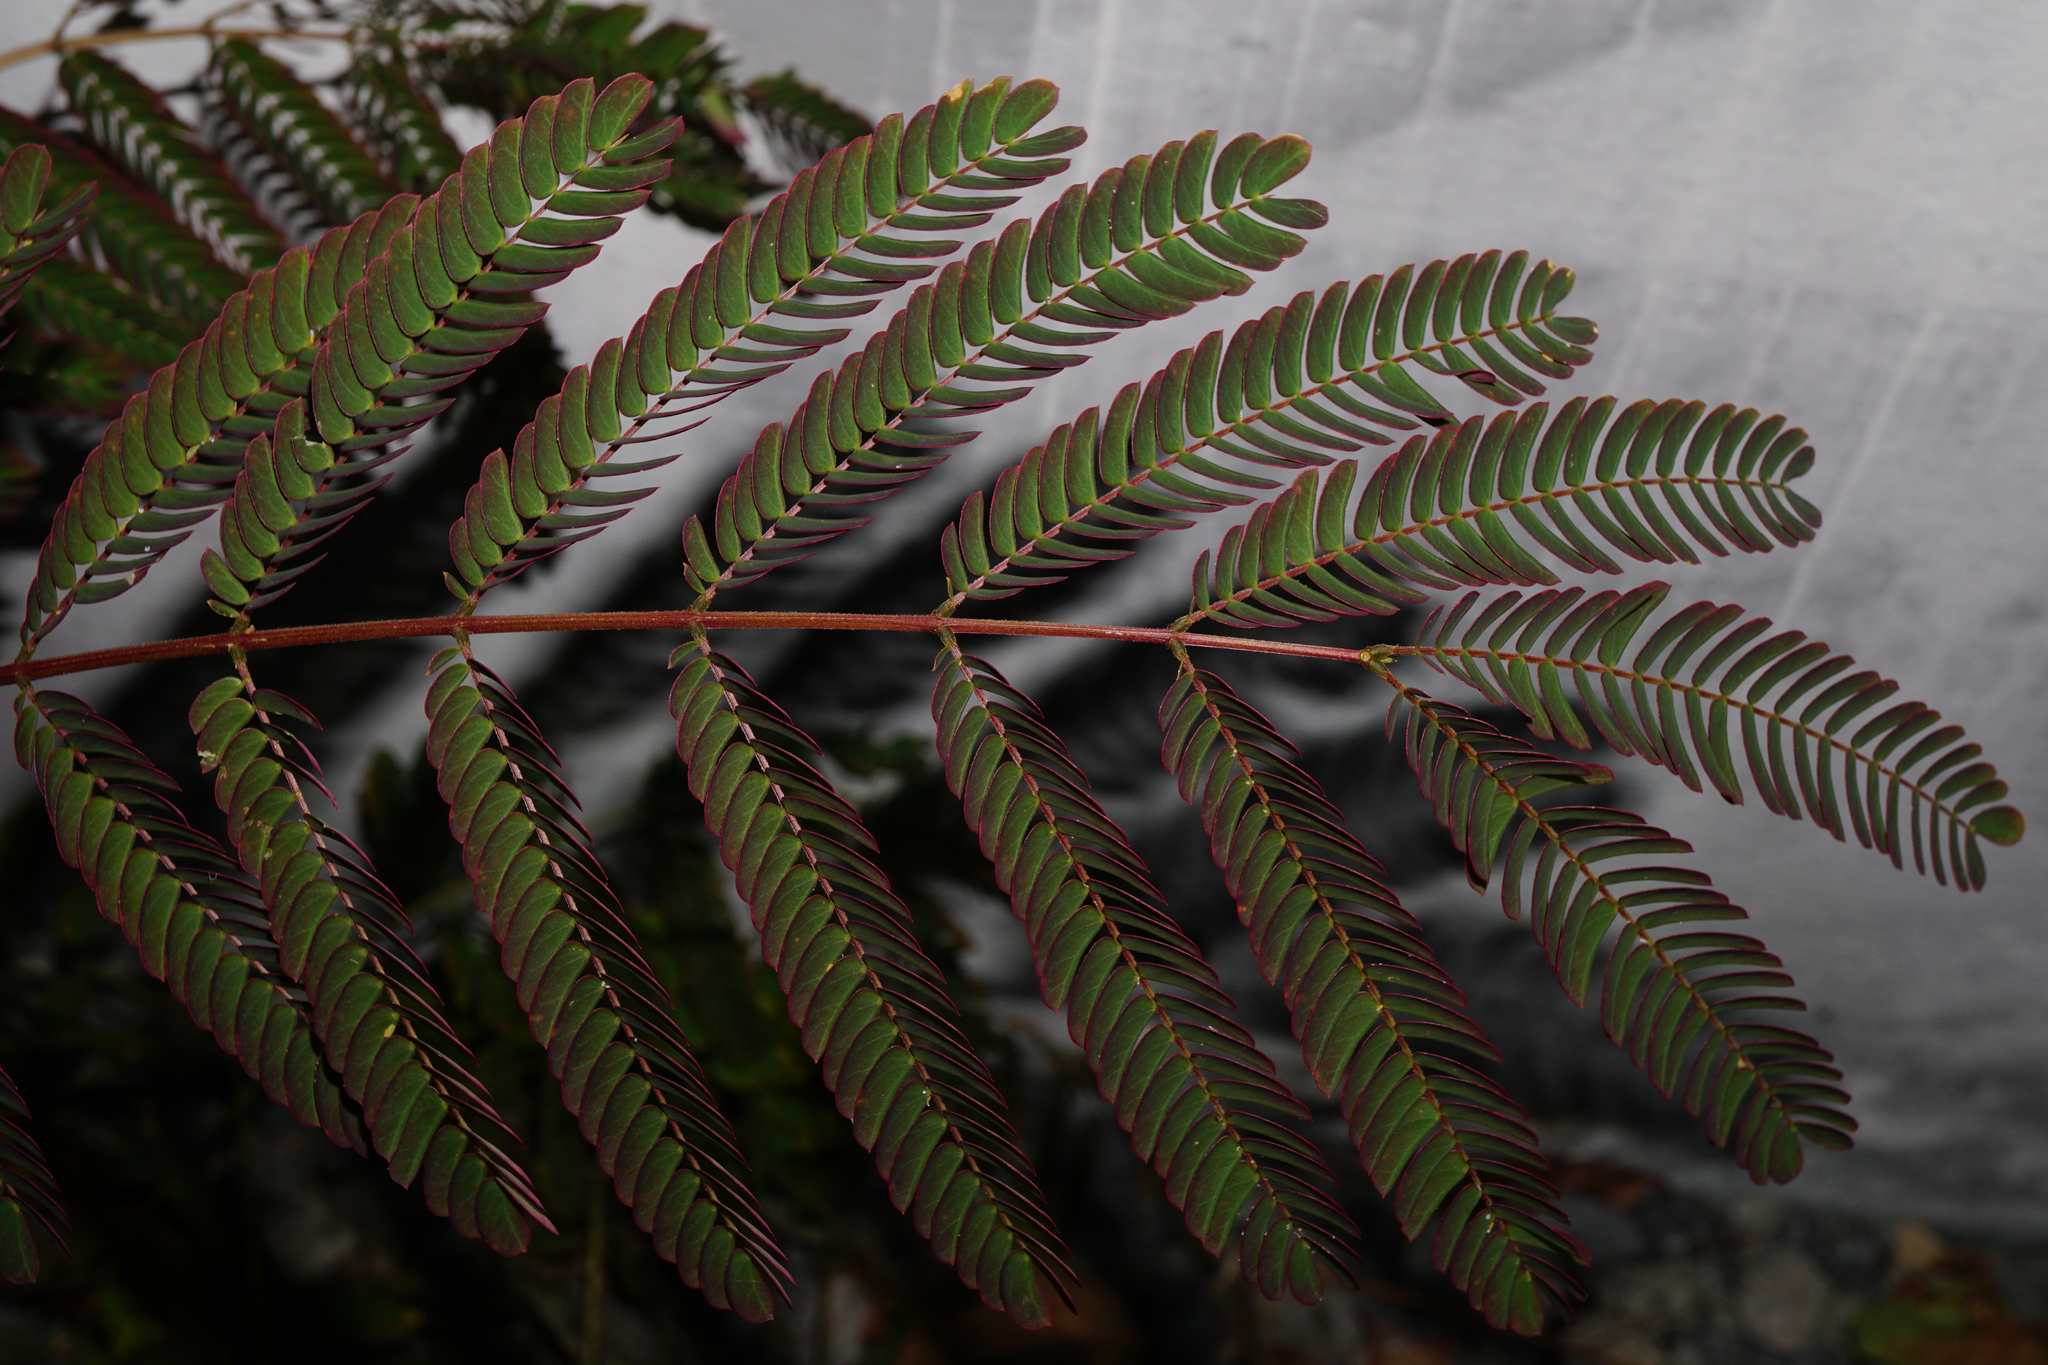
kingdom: Plantae
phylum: Tracheophyta
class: Magnoliopsida
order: Fabales
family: Fabaceae
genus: Albizia
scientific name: Albizia julibrissin
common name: Silktree
